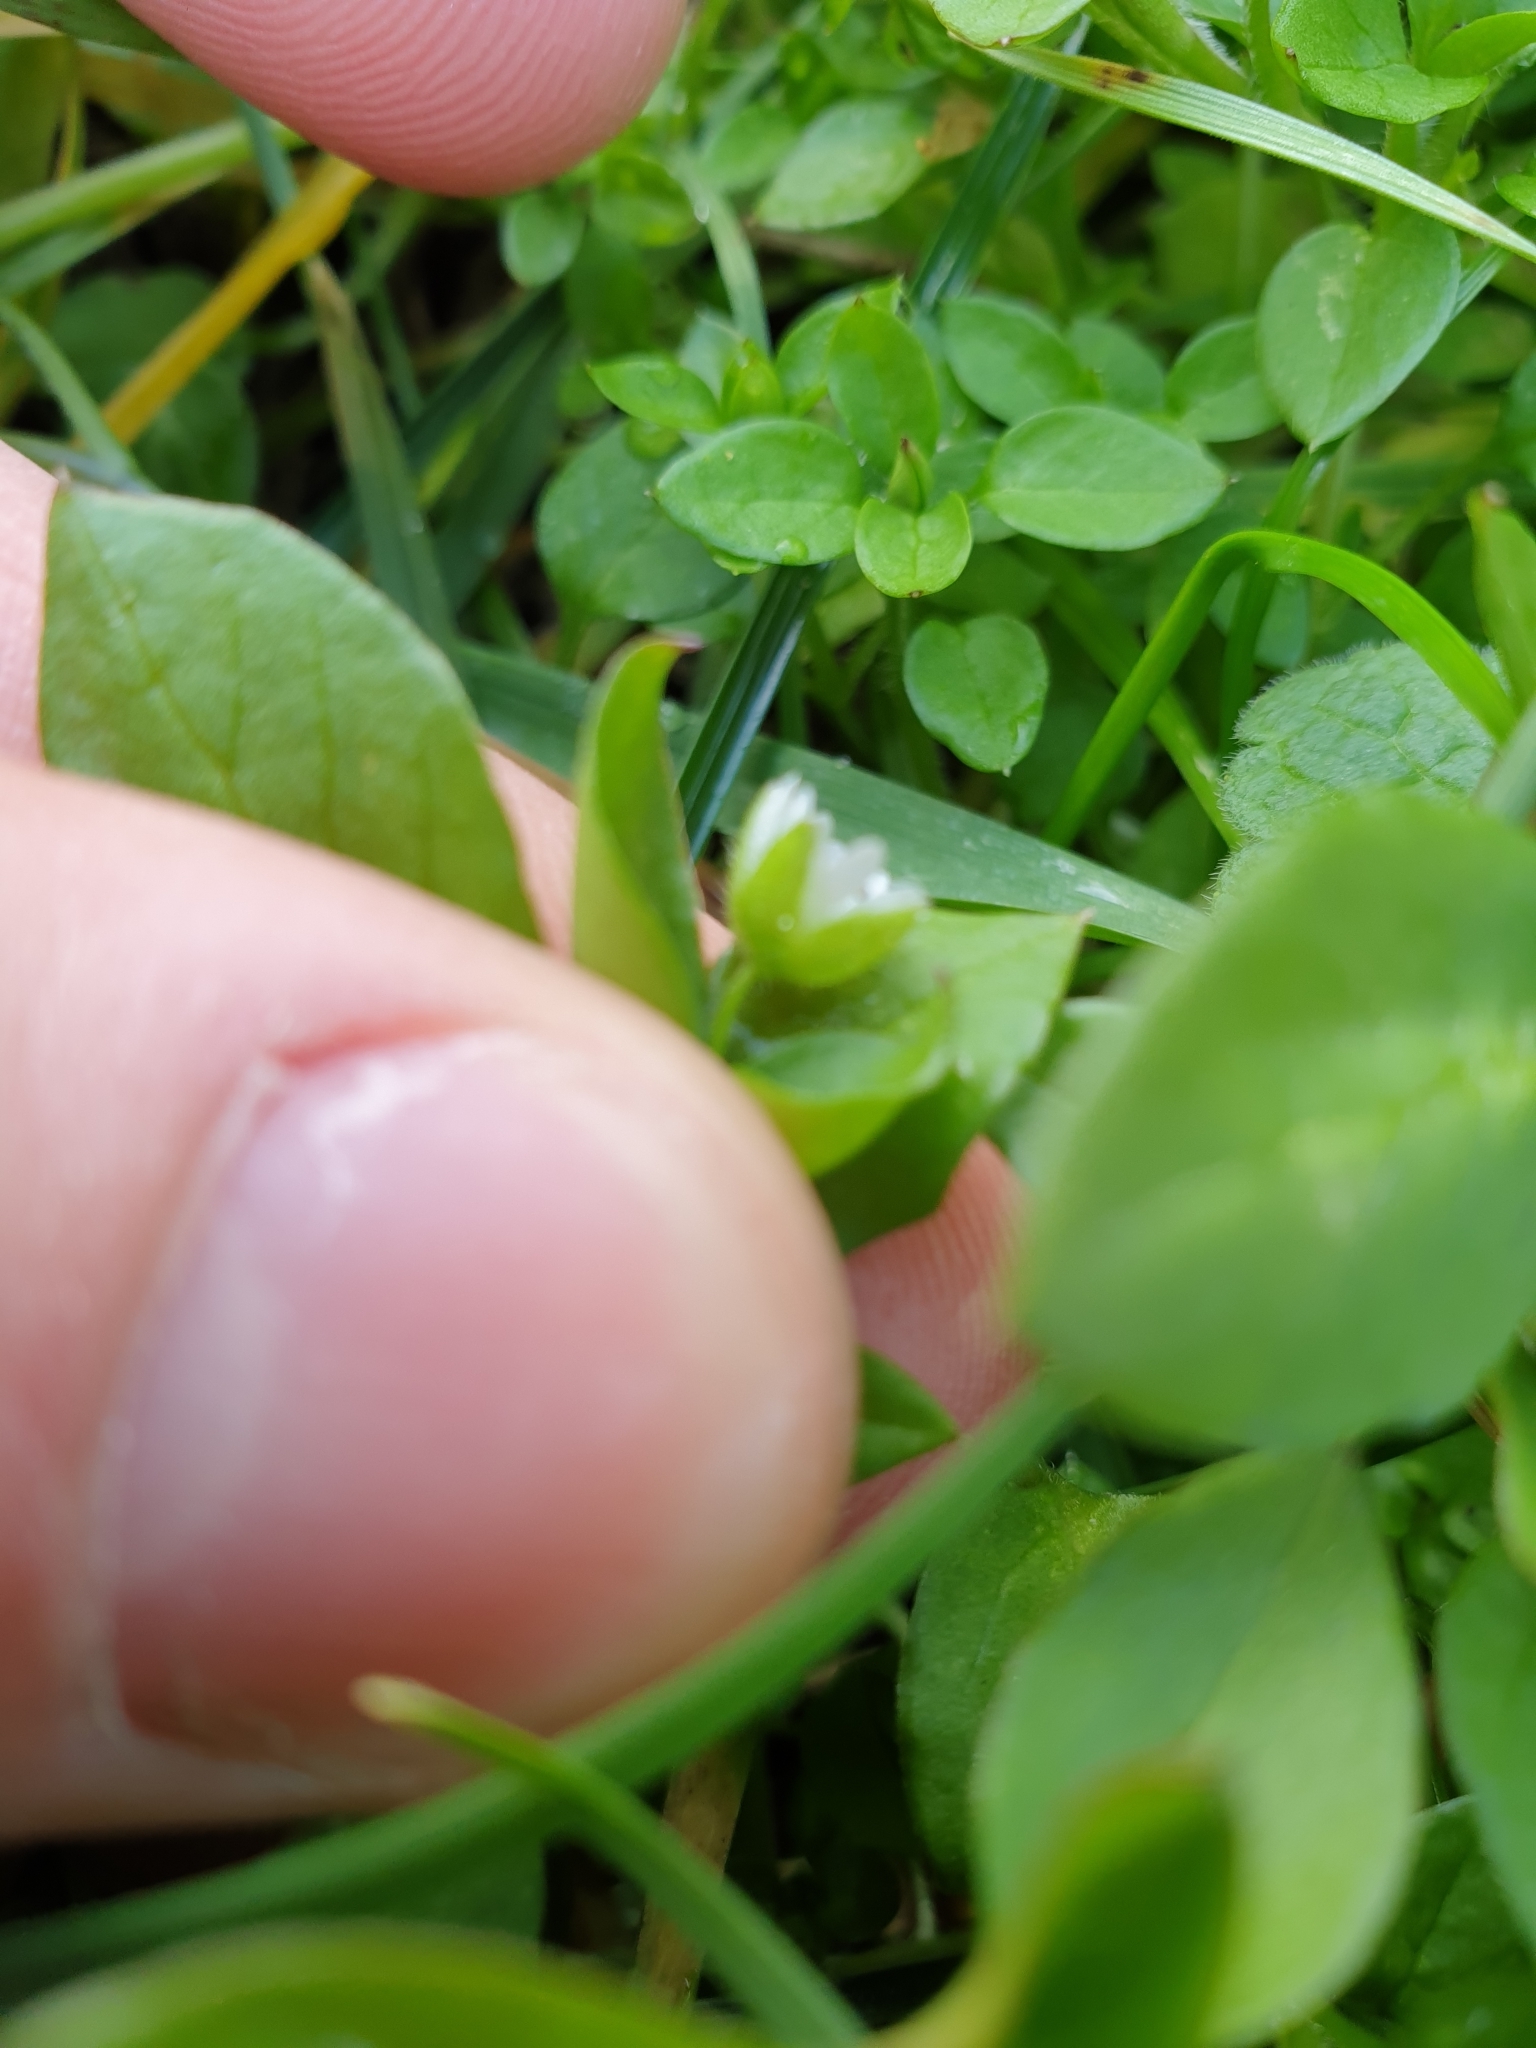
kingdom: Plantae
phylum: Tracheophyta
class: Magnoliopsida
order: Caryophyllales
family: Caryophyllaceae
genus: Stellaria
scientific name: Stellaria media
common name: Common chickweed
